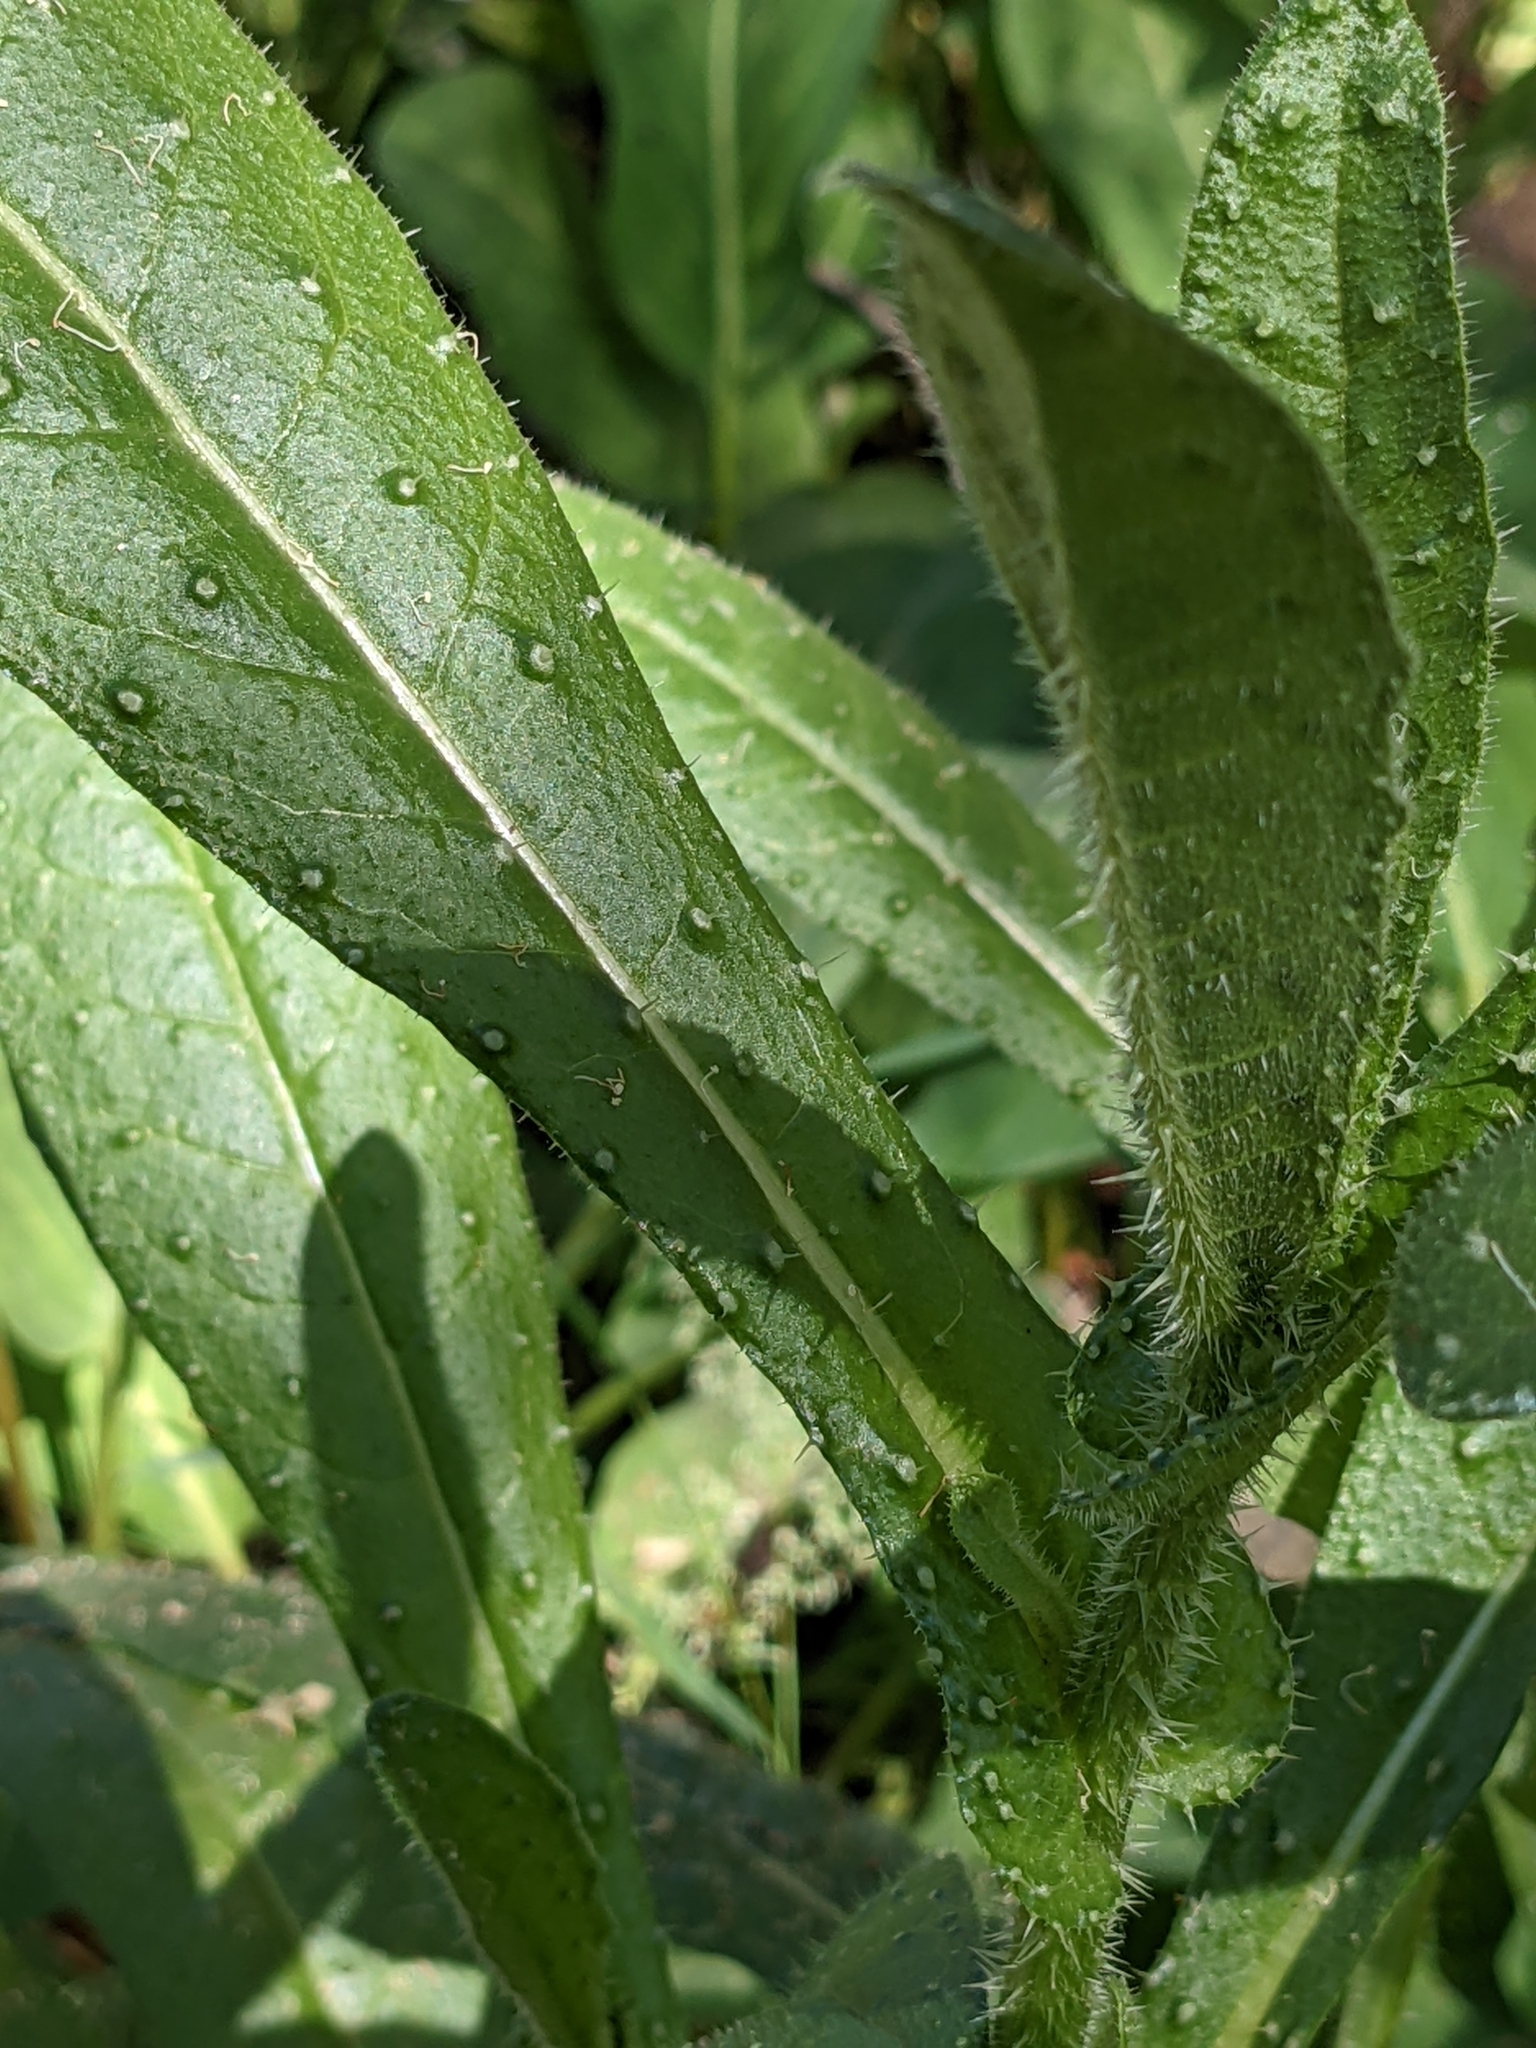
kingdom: Plantae
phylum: Tracheophyta
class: Magnoliopsida
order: Asterales
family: Asteraceae
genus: Helminthotheca
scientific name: Helminthotheca echioides
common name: Ox-tongue
